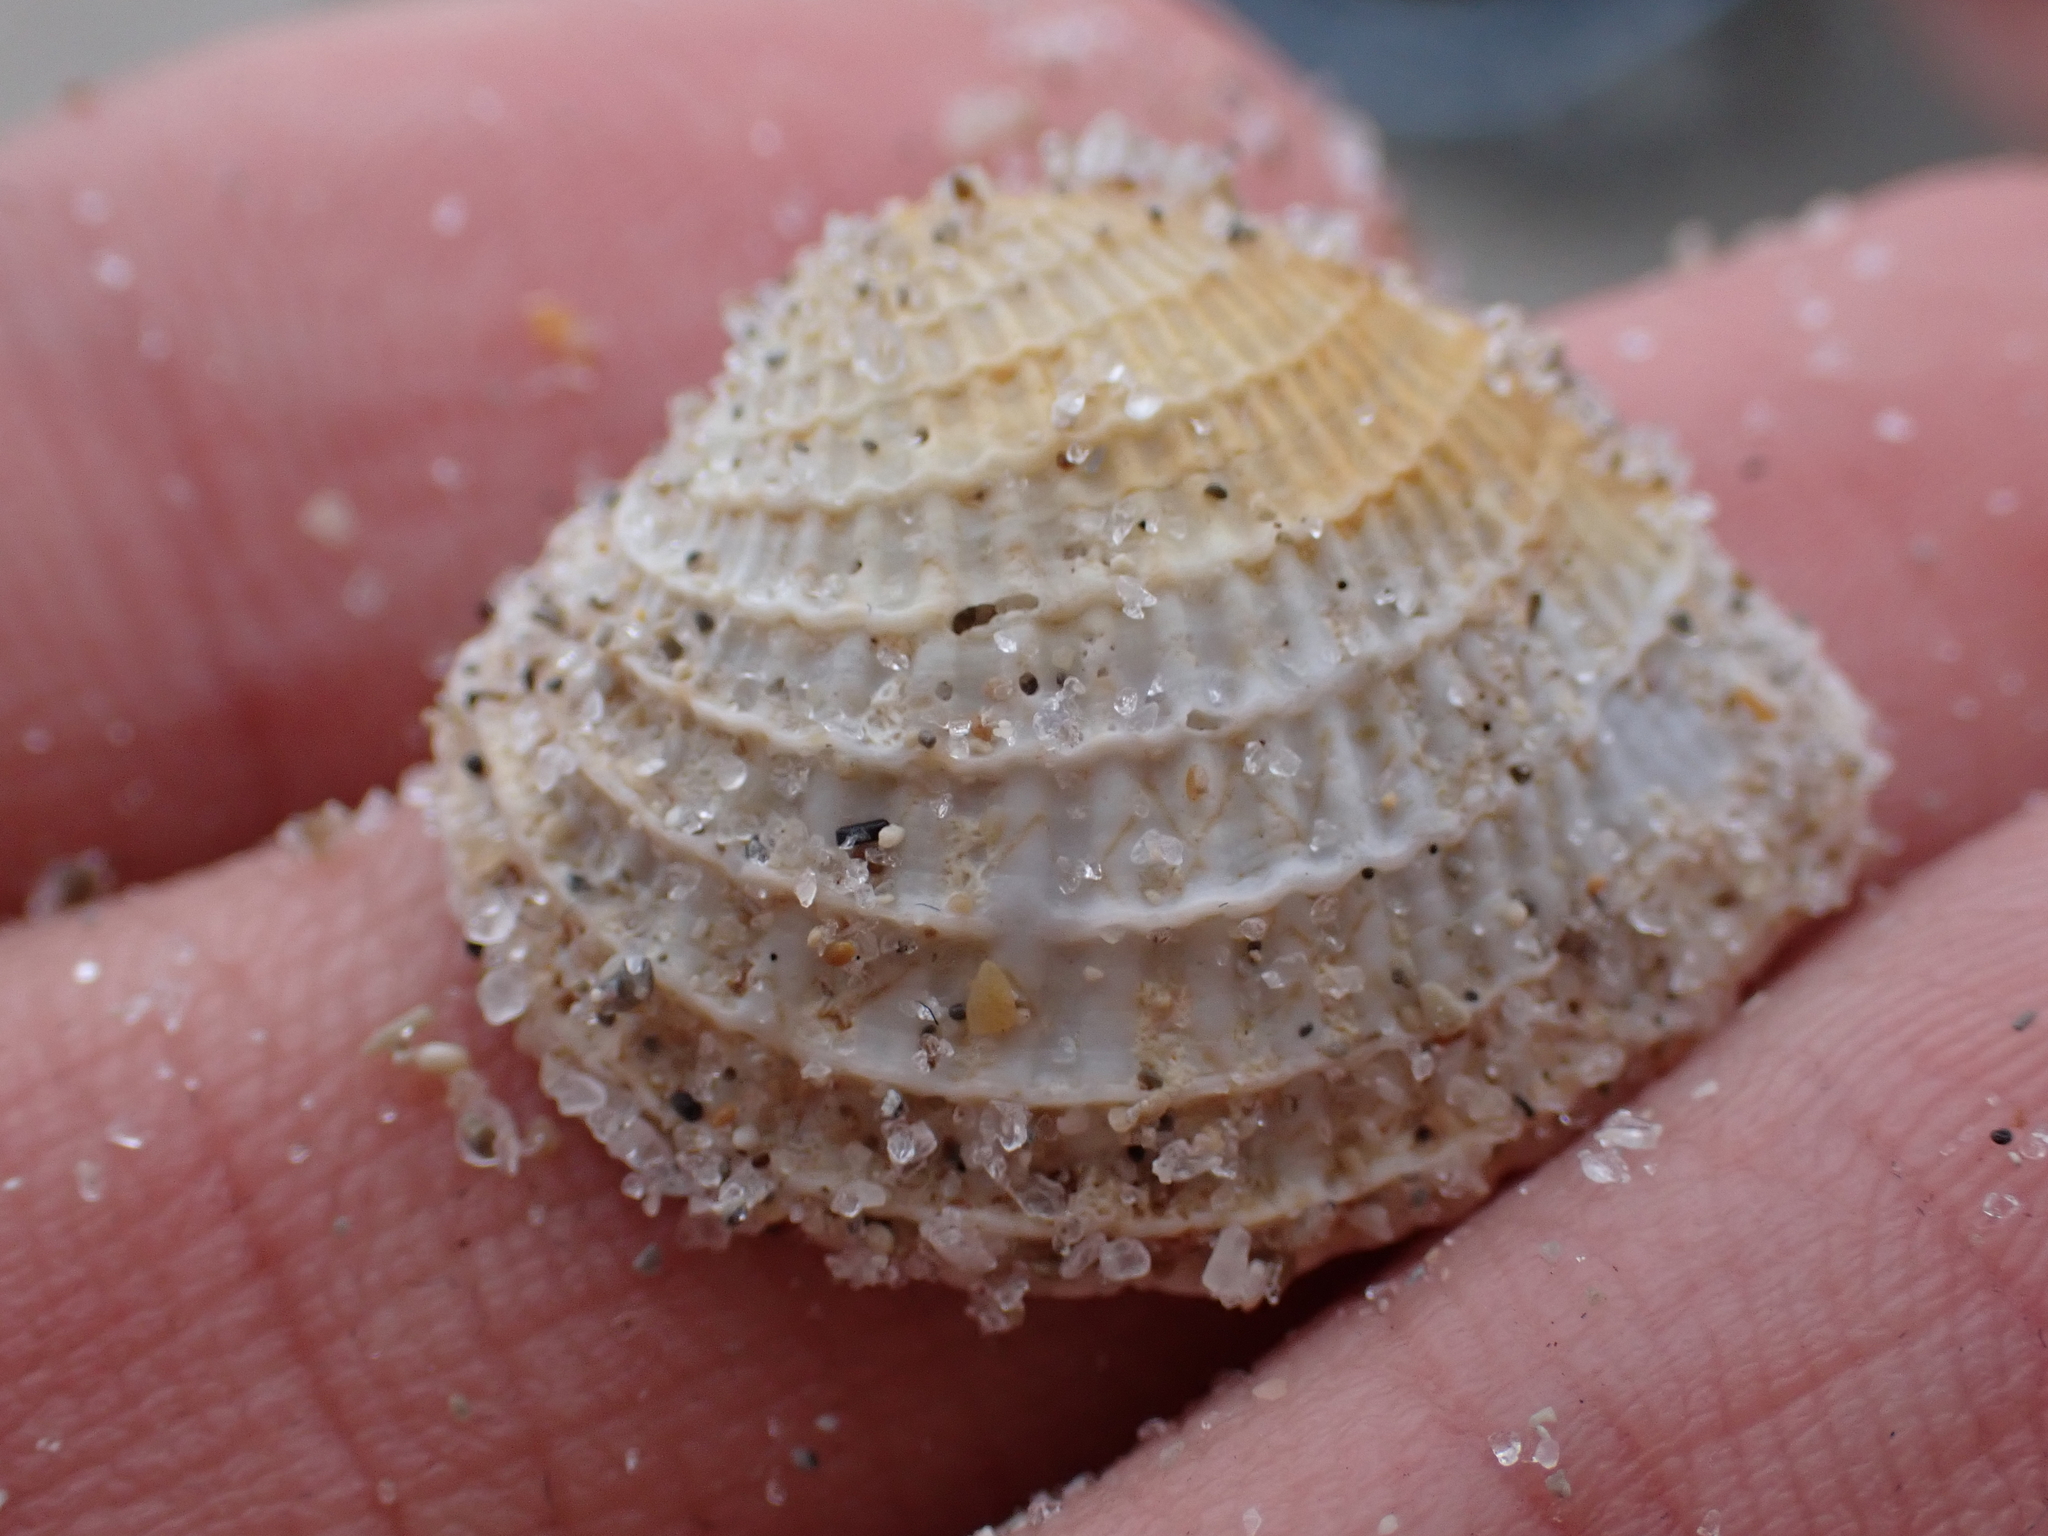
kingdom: Animalia
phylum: Mollusca
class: Bivalvia
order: Venerida
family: Veneridae
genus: Chione
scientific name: Chione elevata
